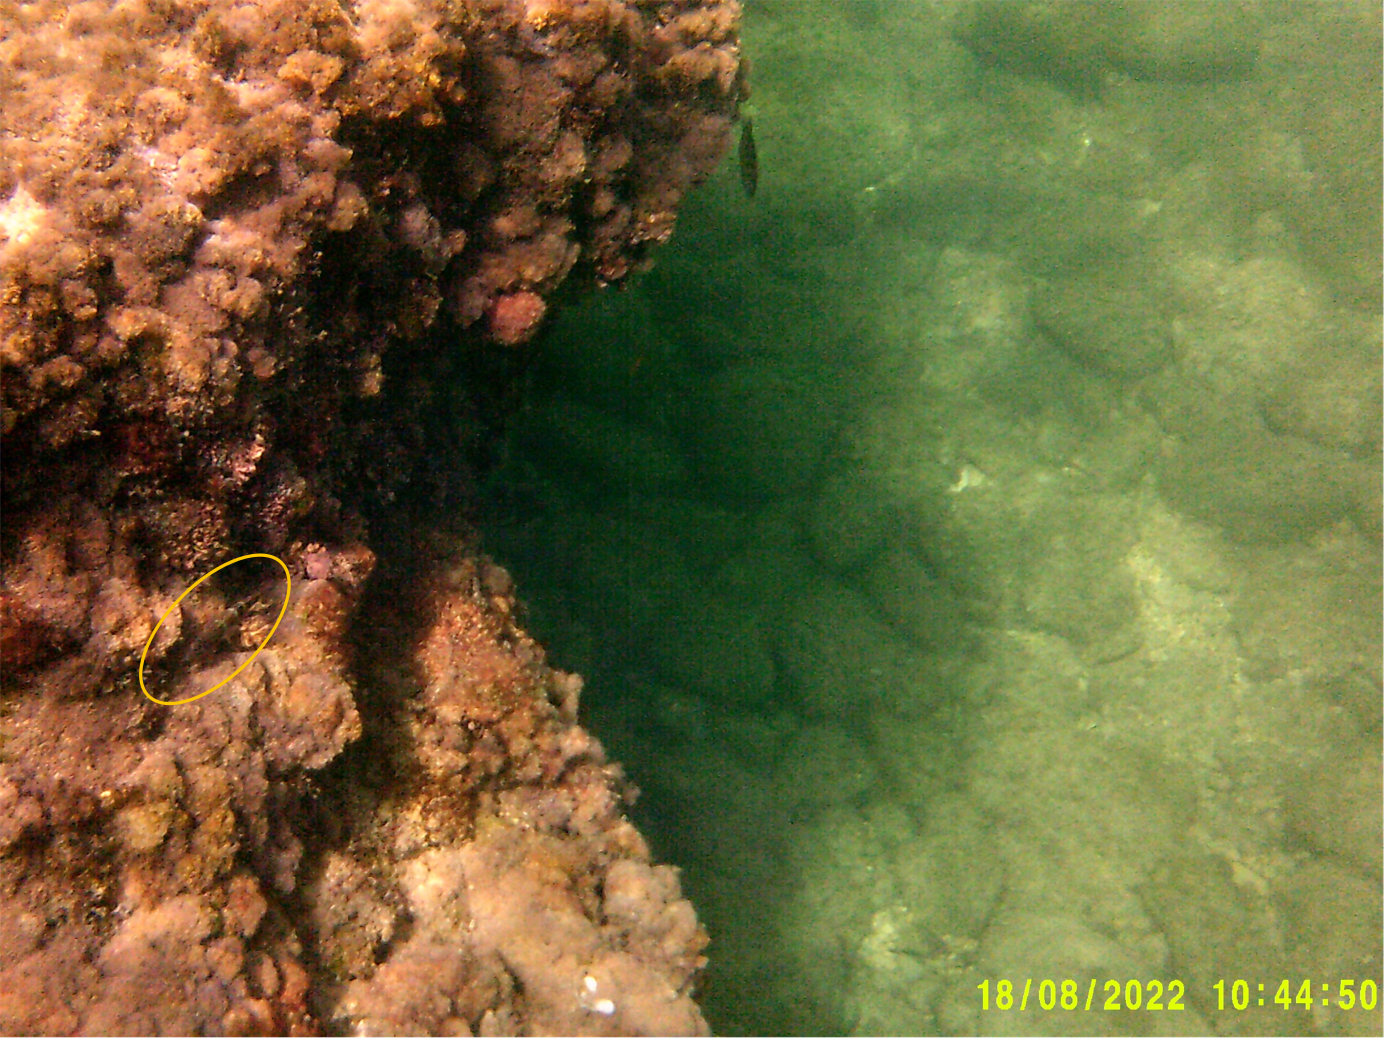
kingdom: Animalia
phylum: Chordata
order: Perciformes
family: Labridae
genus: Thalassoma
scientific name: Thalassoma pavo
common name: Ornate wrasse
